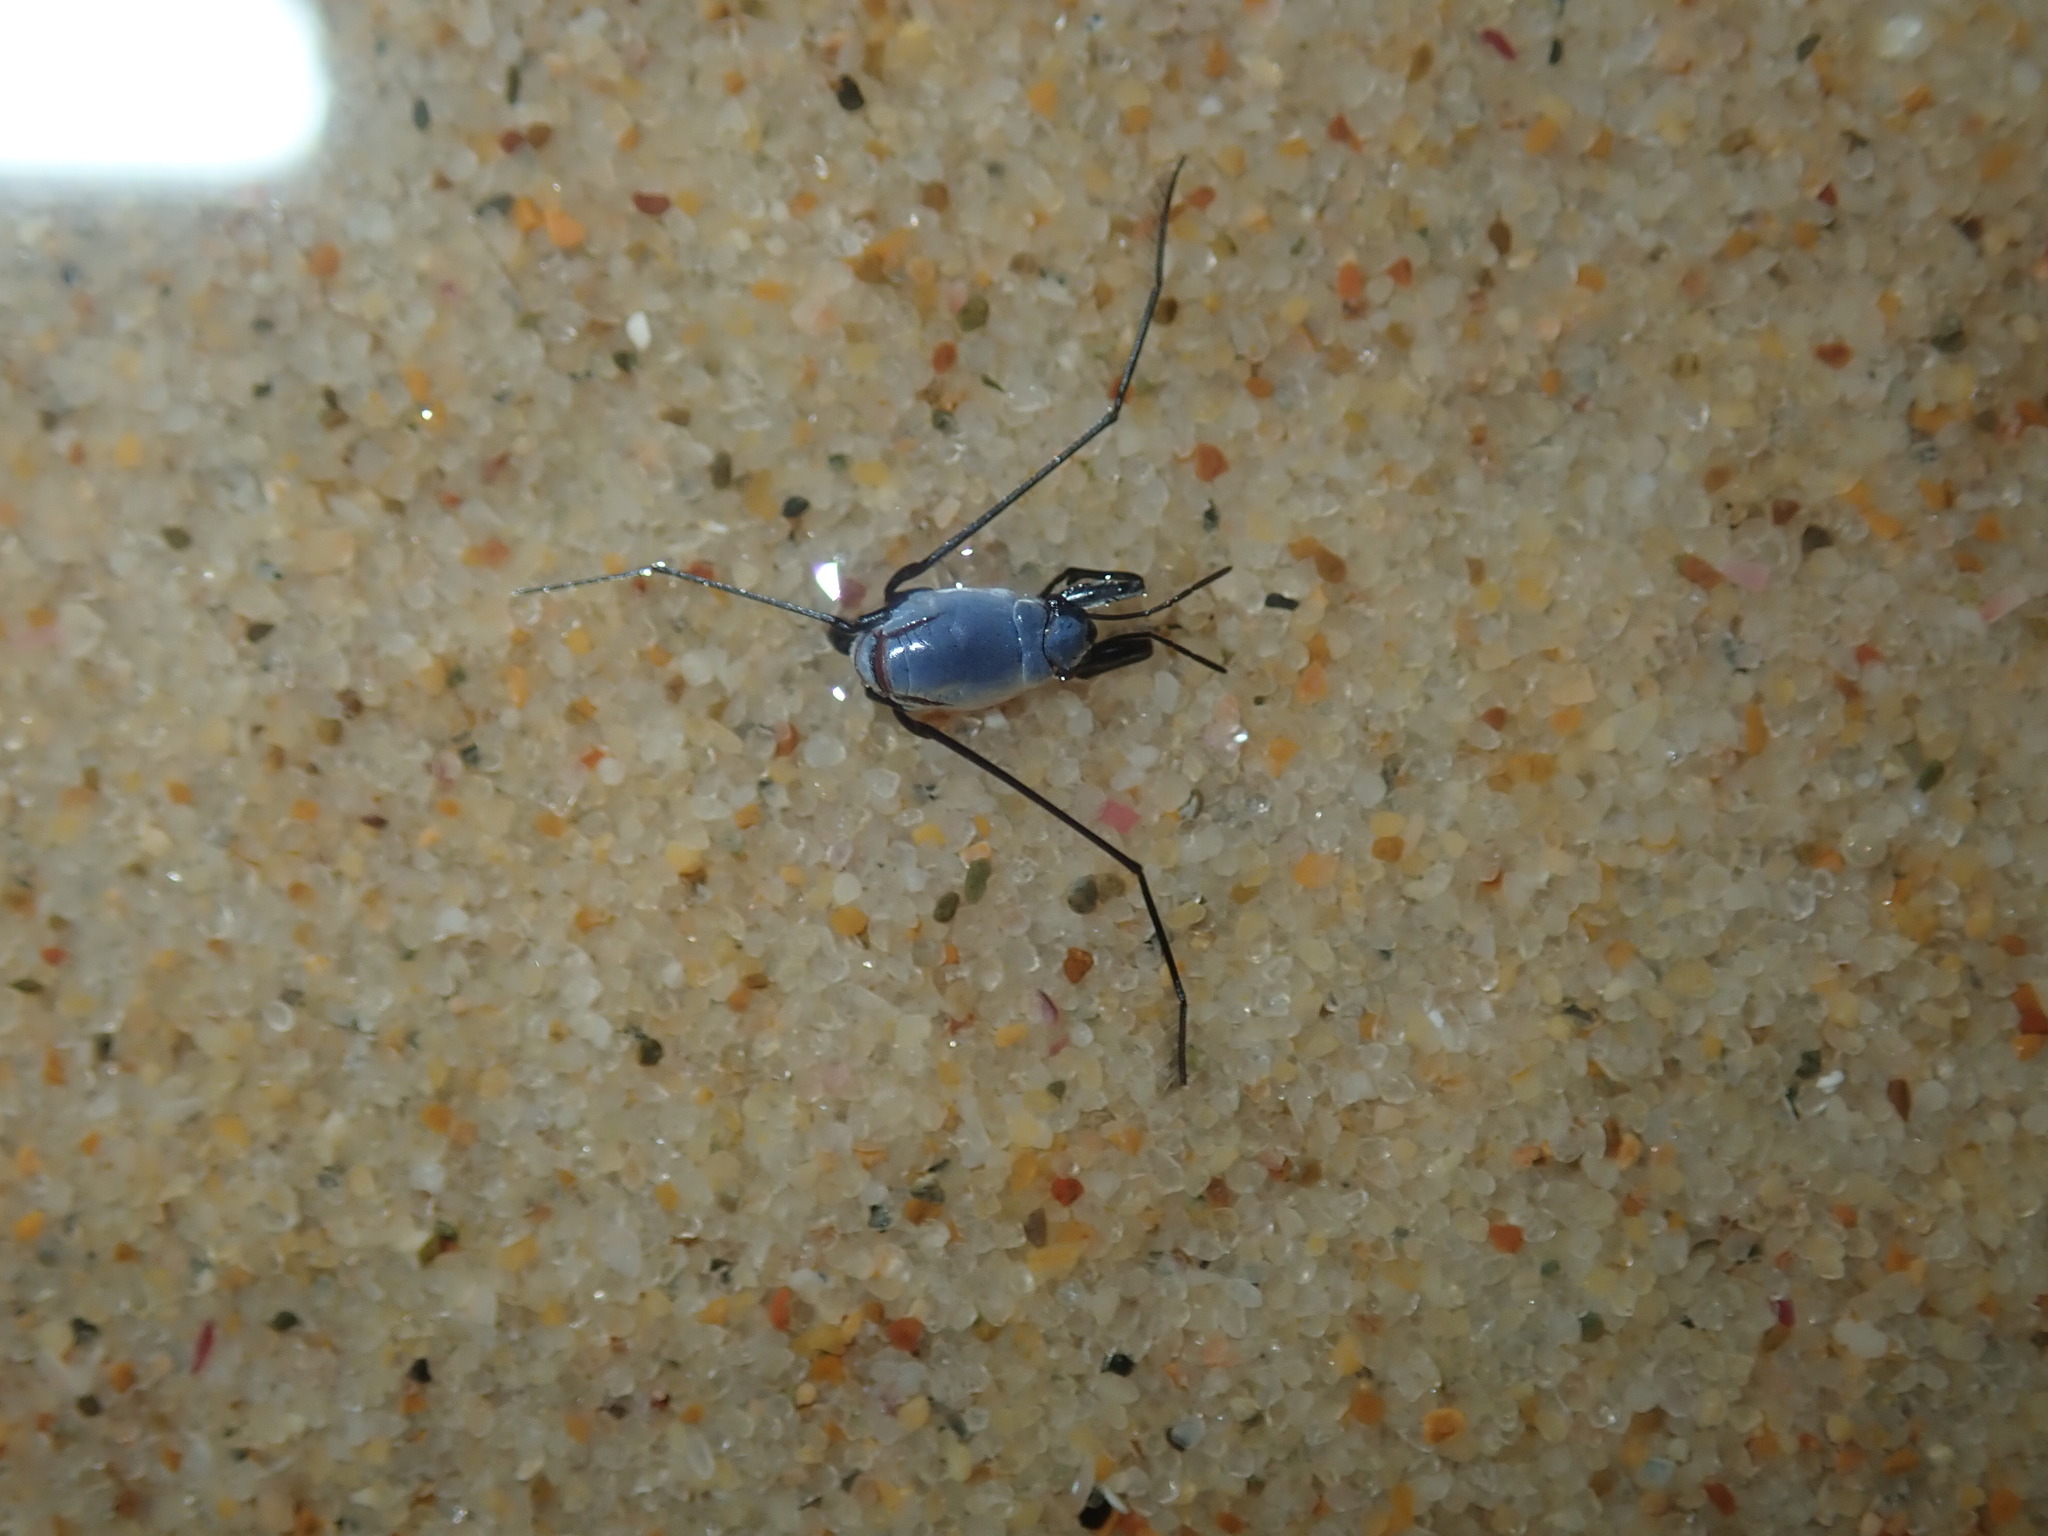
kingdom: Animalia
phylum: Arthropoda
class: Insecta
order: Hemiptera
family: Gerridae
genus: Halobates
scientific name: Halobates
